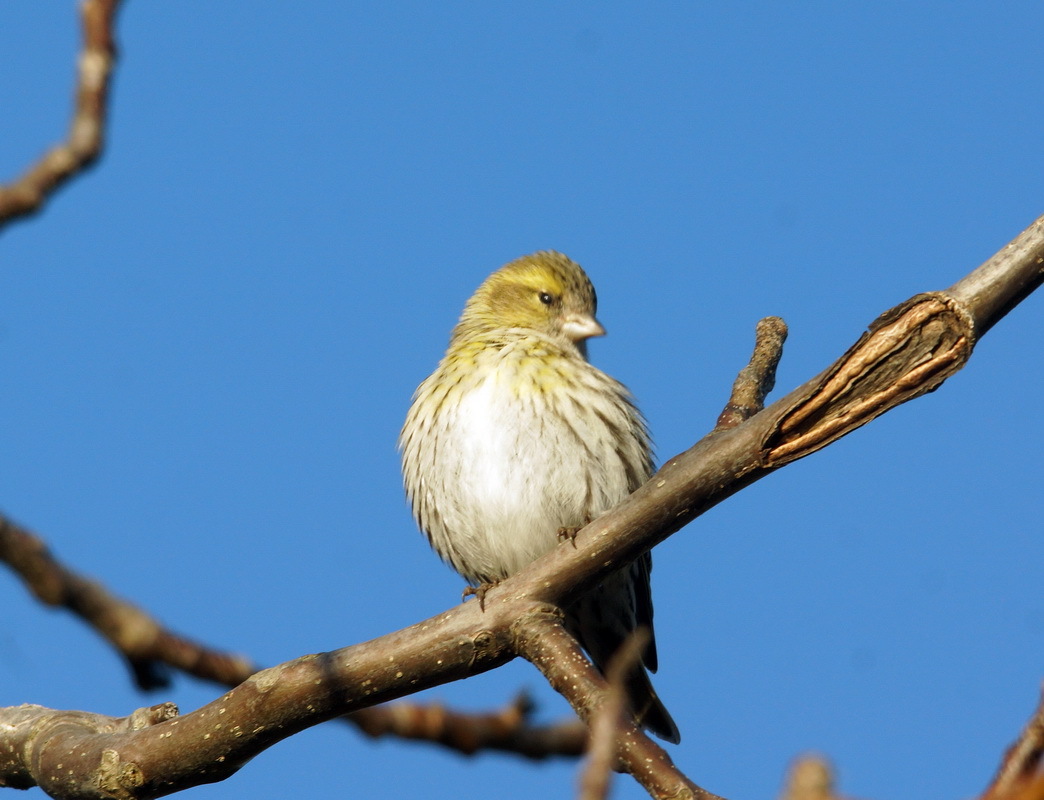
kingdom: Animalia
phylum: Chordata
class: Aves
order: Passeriformes
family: Fringillidae
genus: Spinus
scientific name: Spinus spinus
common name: Eurasian siskin
